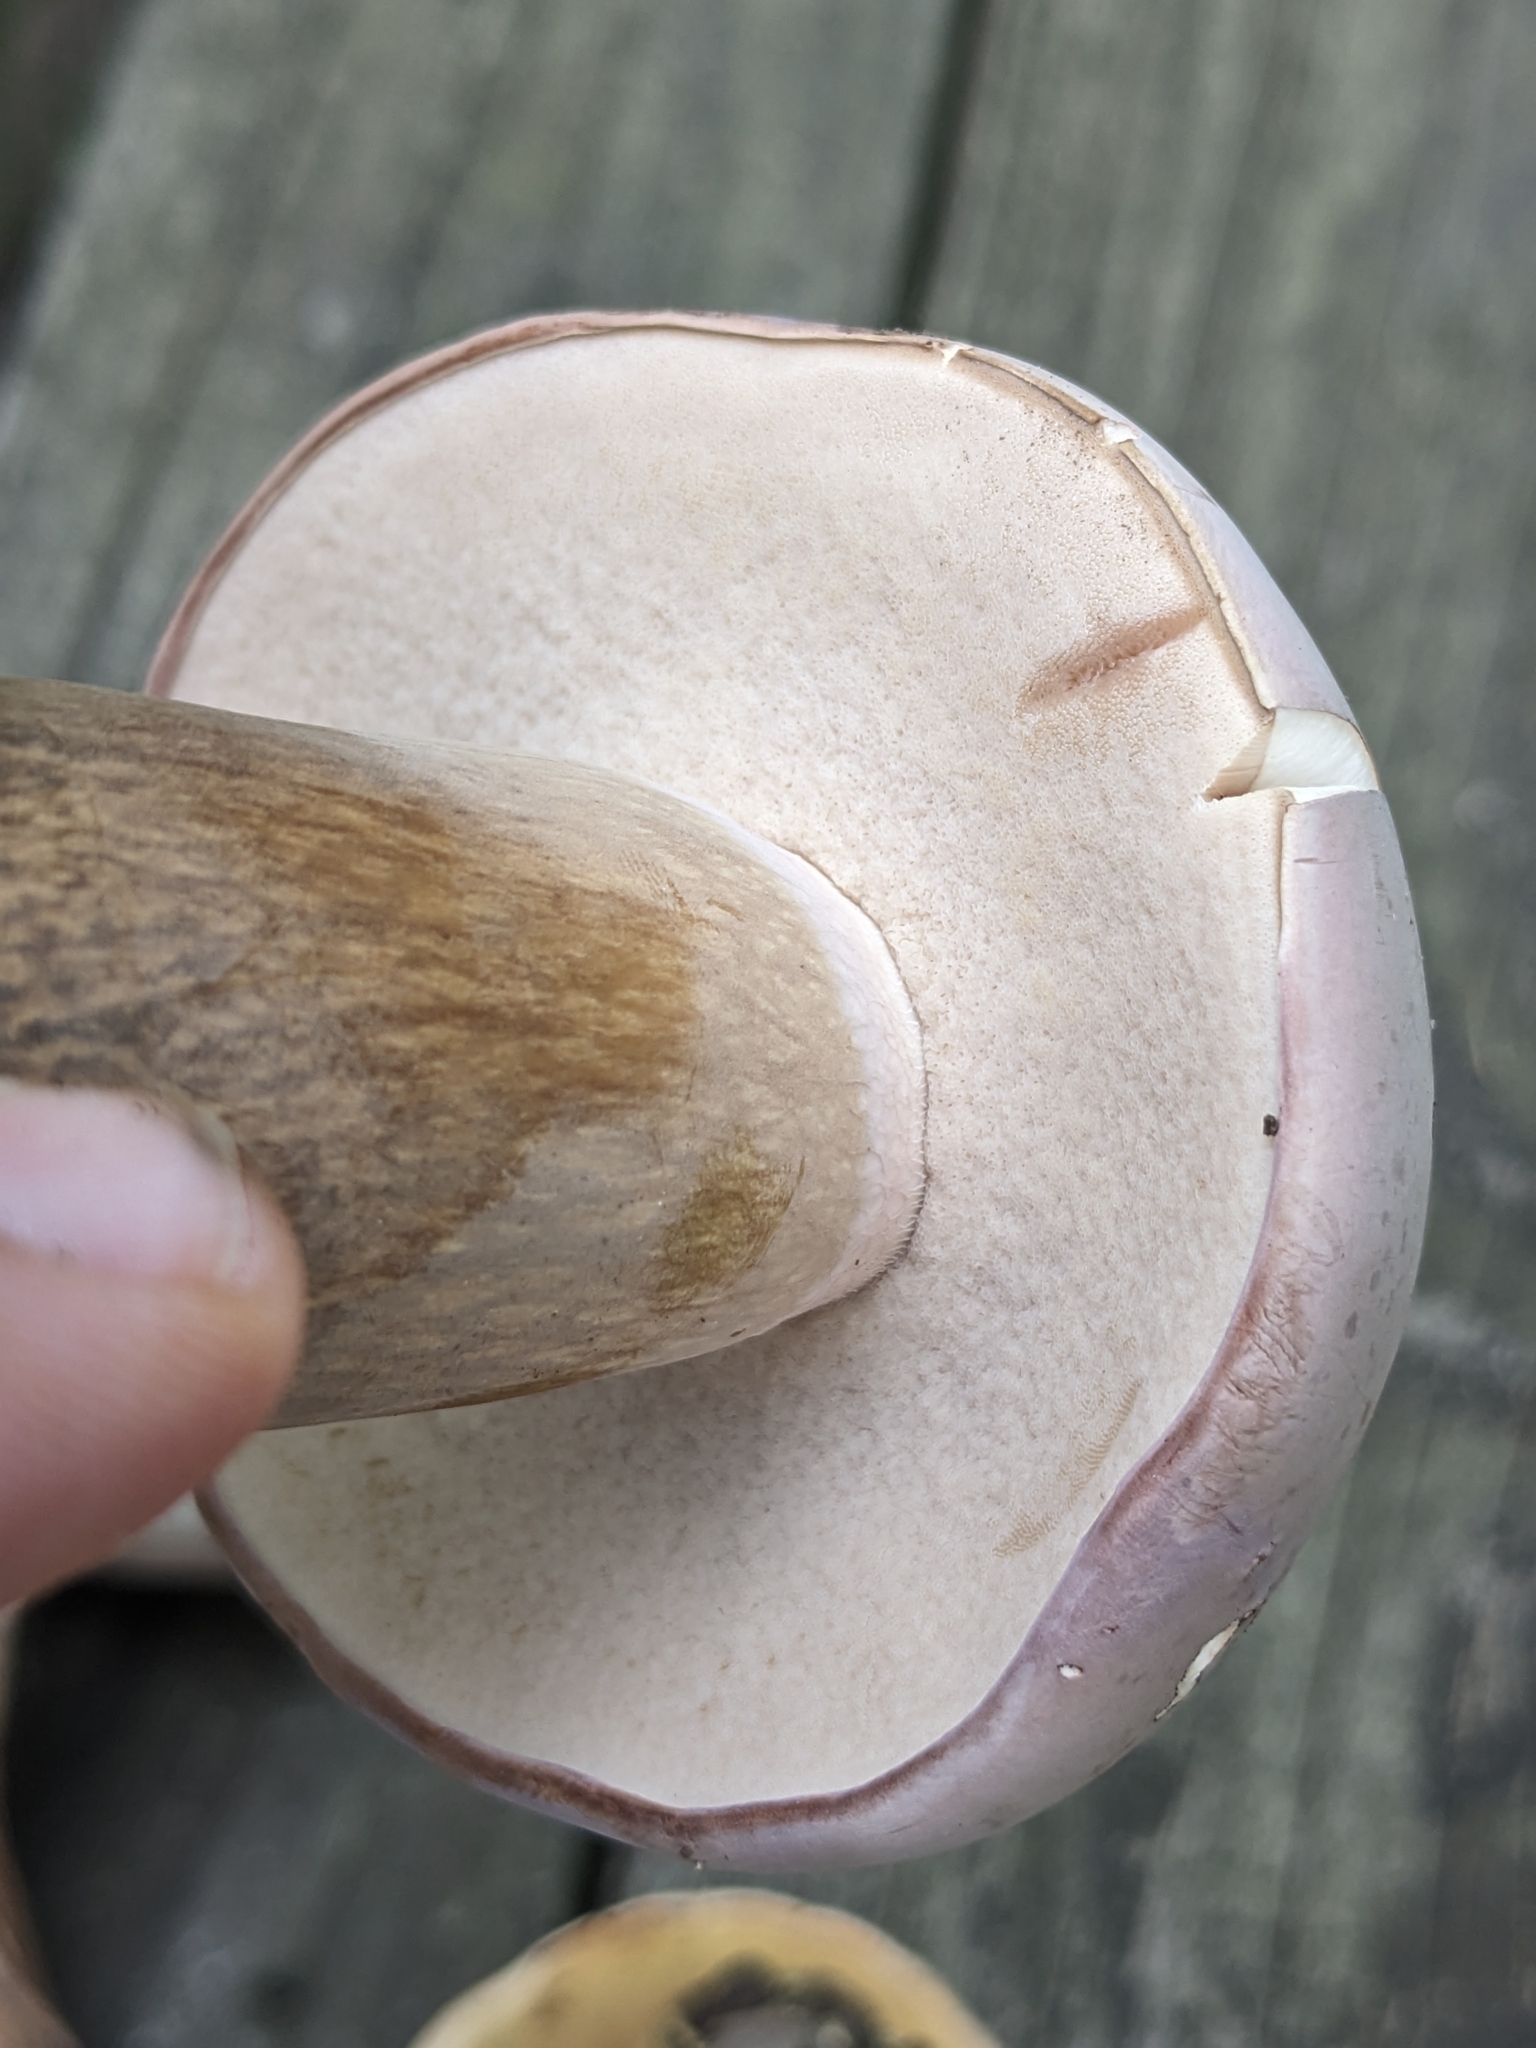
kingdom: Fungi
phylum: Basidiomycota
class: Agaricomycetes
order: Boletales
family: Boletaceae
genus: Tylopilus
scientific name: Tylopilus rubrobrunneus
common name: Reddish brown bitter bolete
